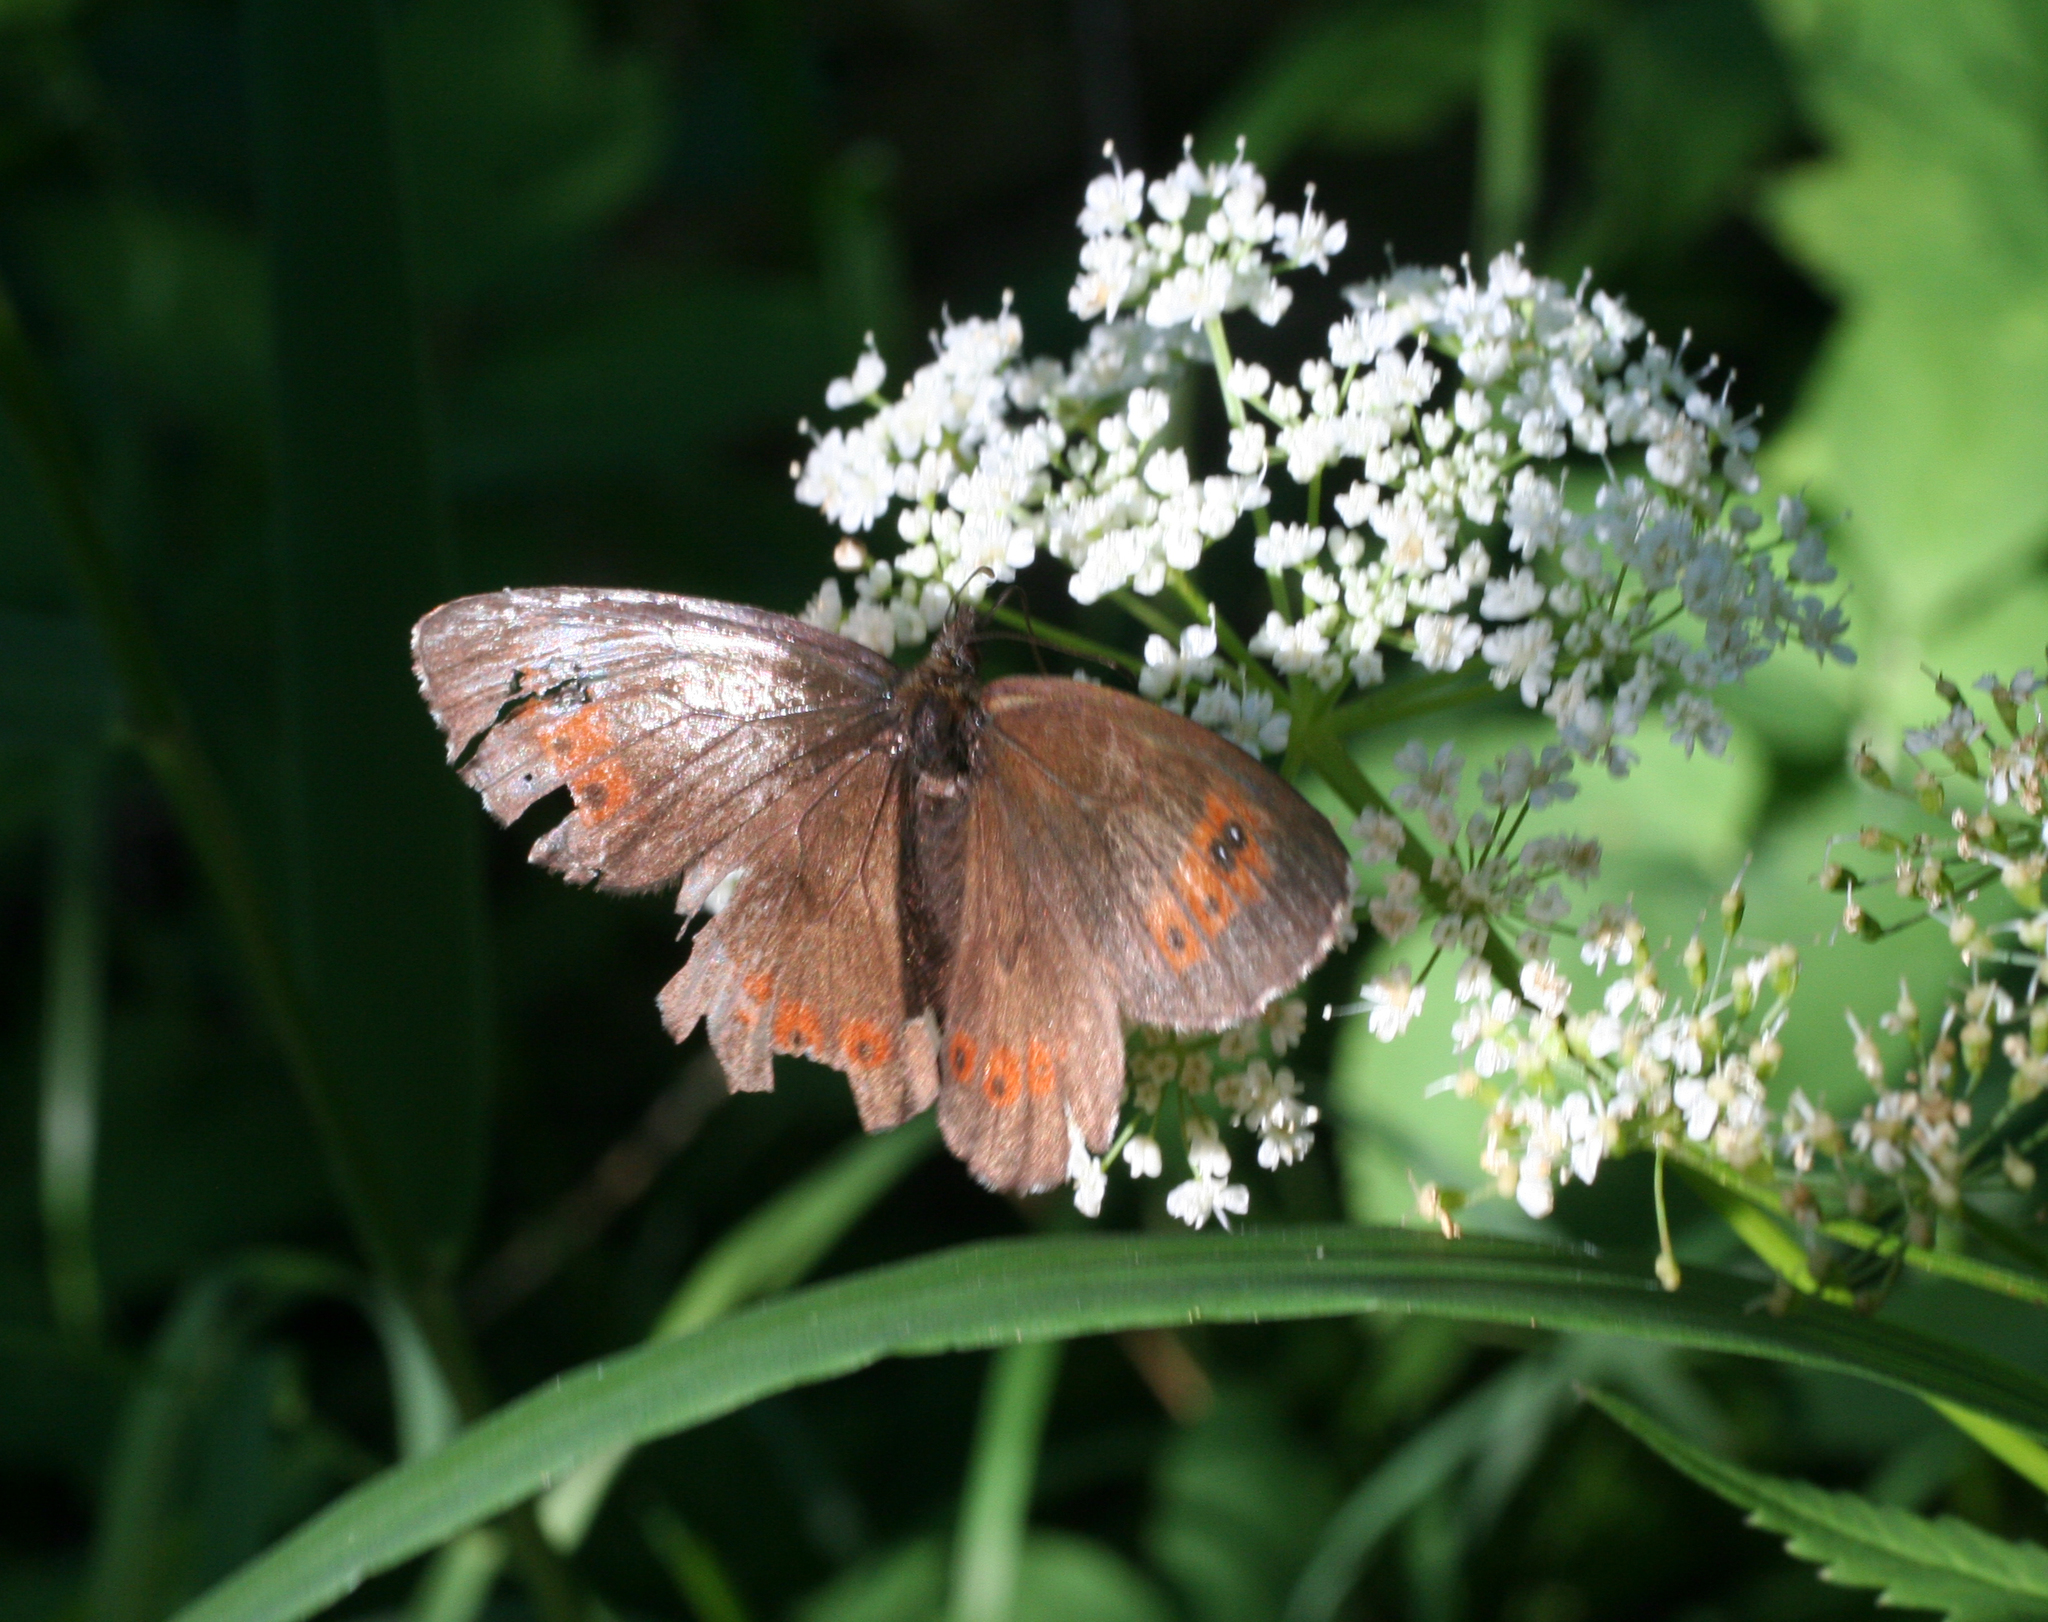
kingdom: Animalia
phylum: Arthropoda
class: Insecta
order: Lepidoptera
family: Nymphalidae
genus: Erebia
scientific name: Erebia ligea
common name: Arran brown
